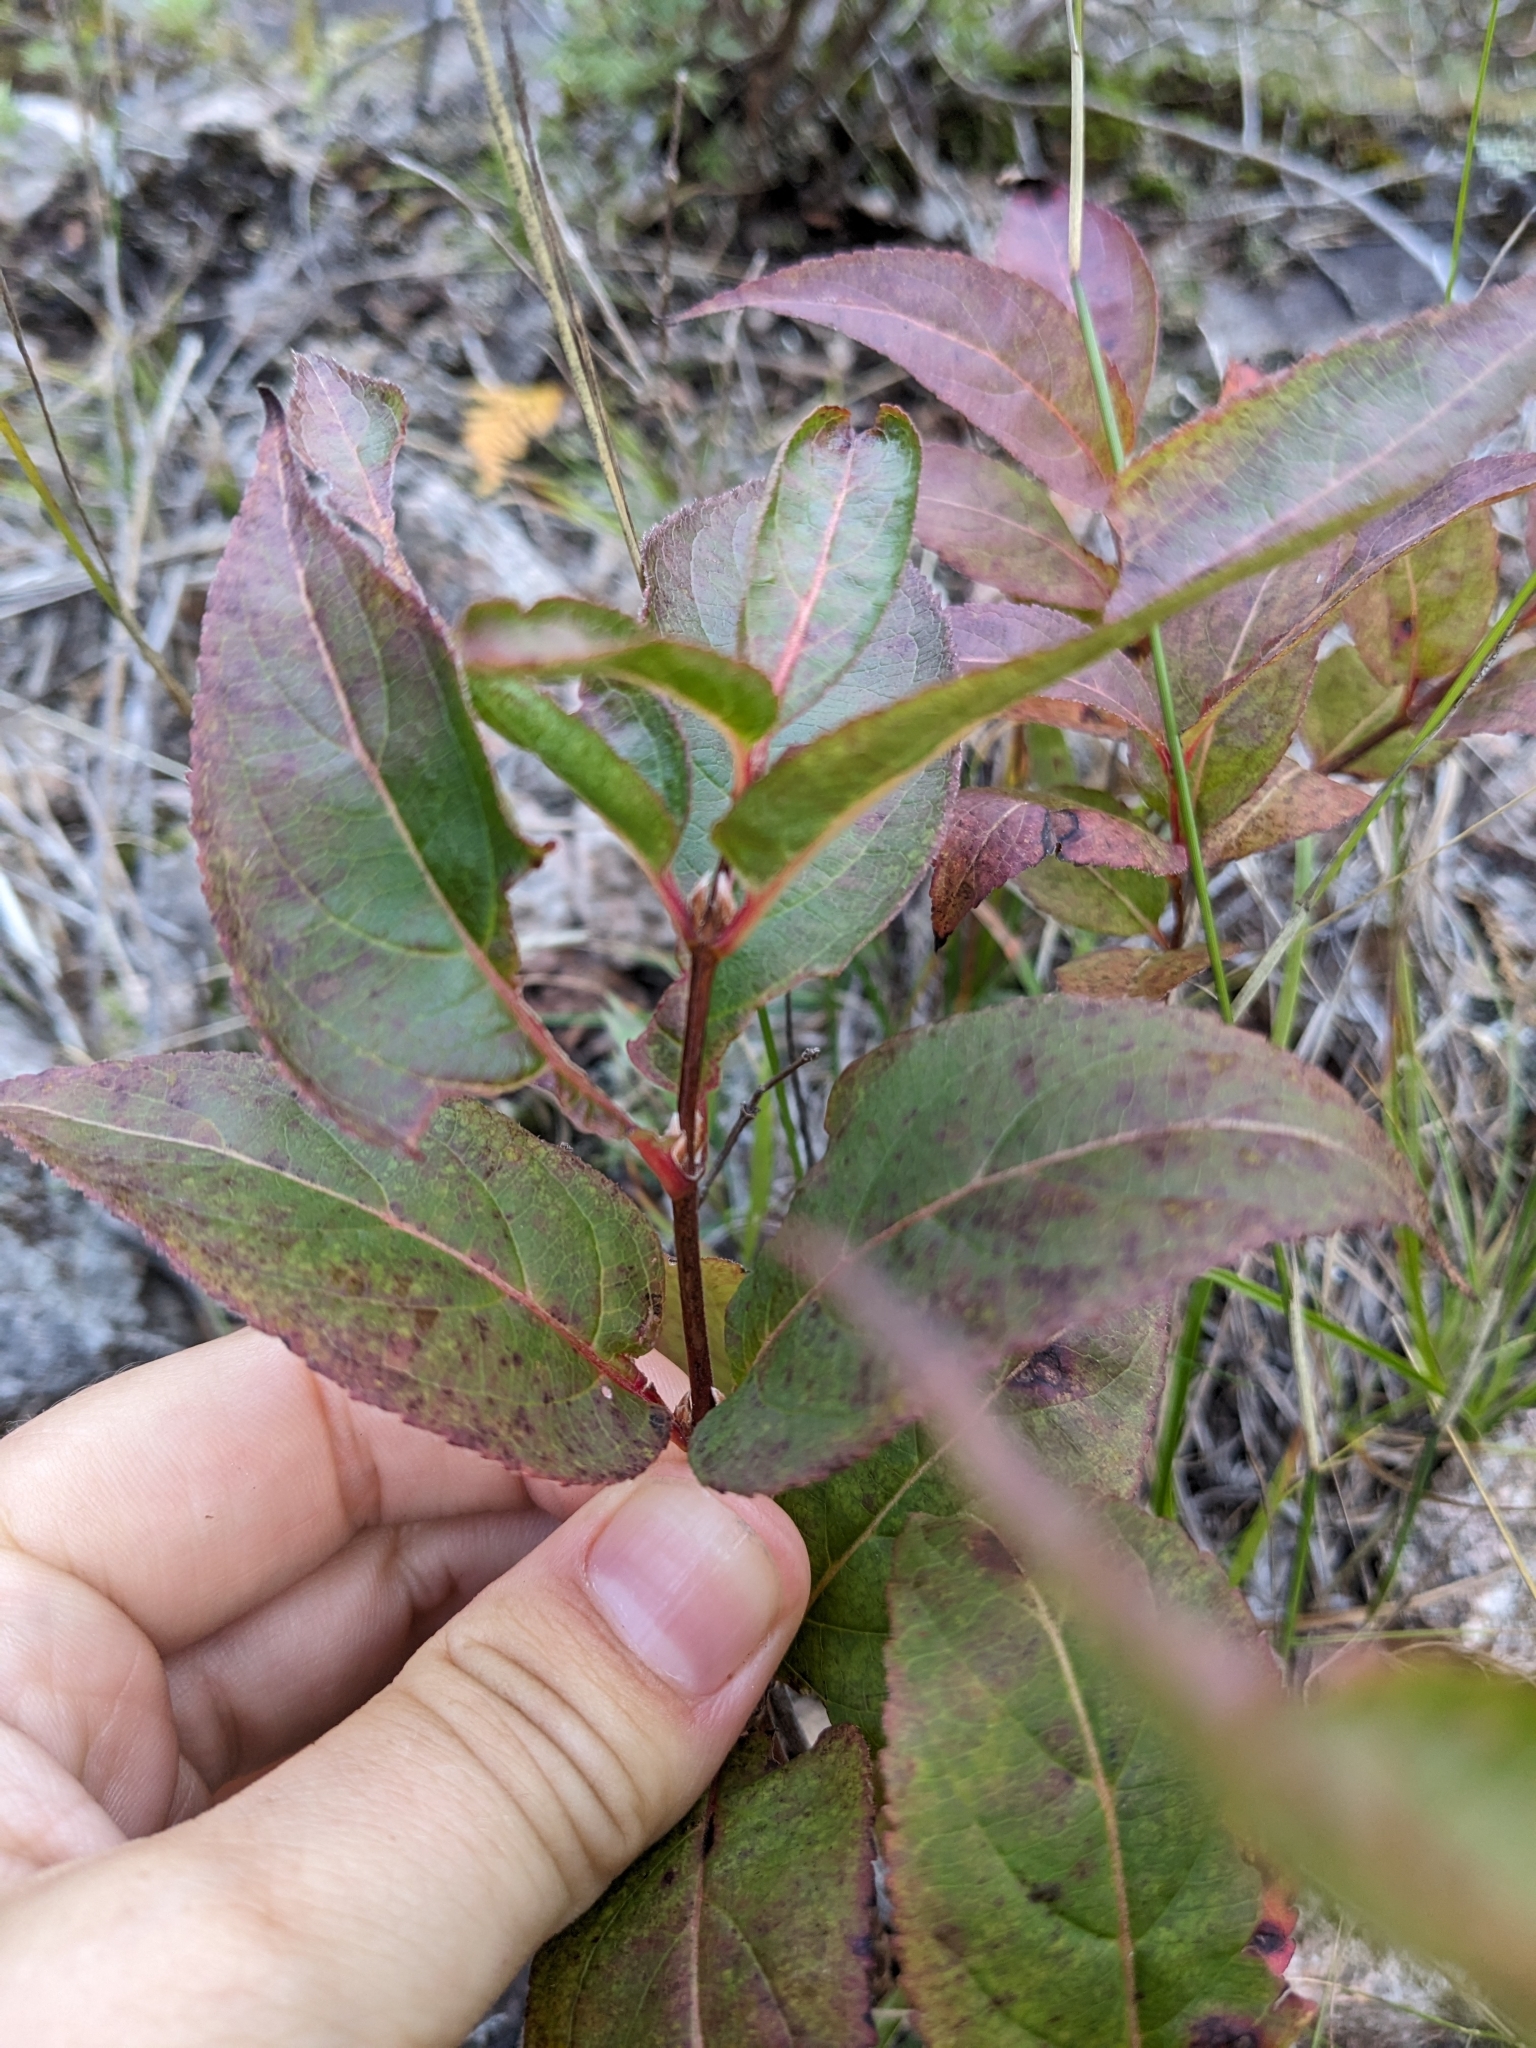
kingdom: Plantae
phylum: Tracheophyta
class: Magnoliopsida
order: Dipsacales
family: Caprifoliaceae
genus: Diervilla
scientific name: Diervilla lonicera
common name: Bush-honeysuckle
